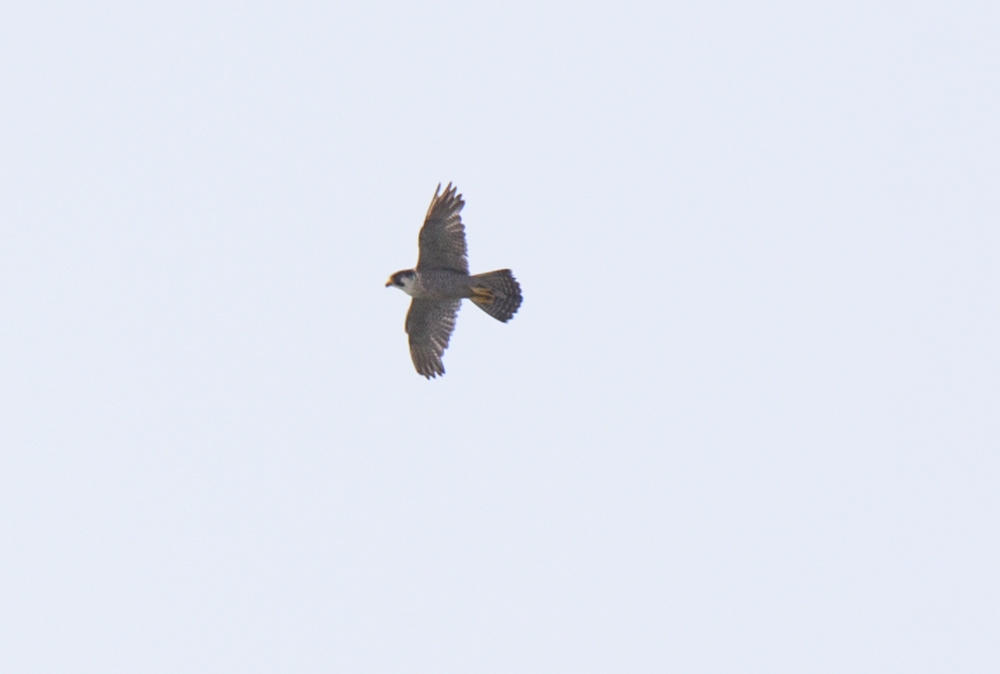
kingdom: Animalia
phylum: Chordata
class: Aves
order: Falconiformes
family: Falconidae
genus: Falco
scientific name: Falco peregrinus
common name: Peregrine falcon
